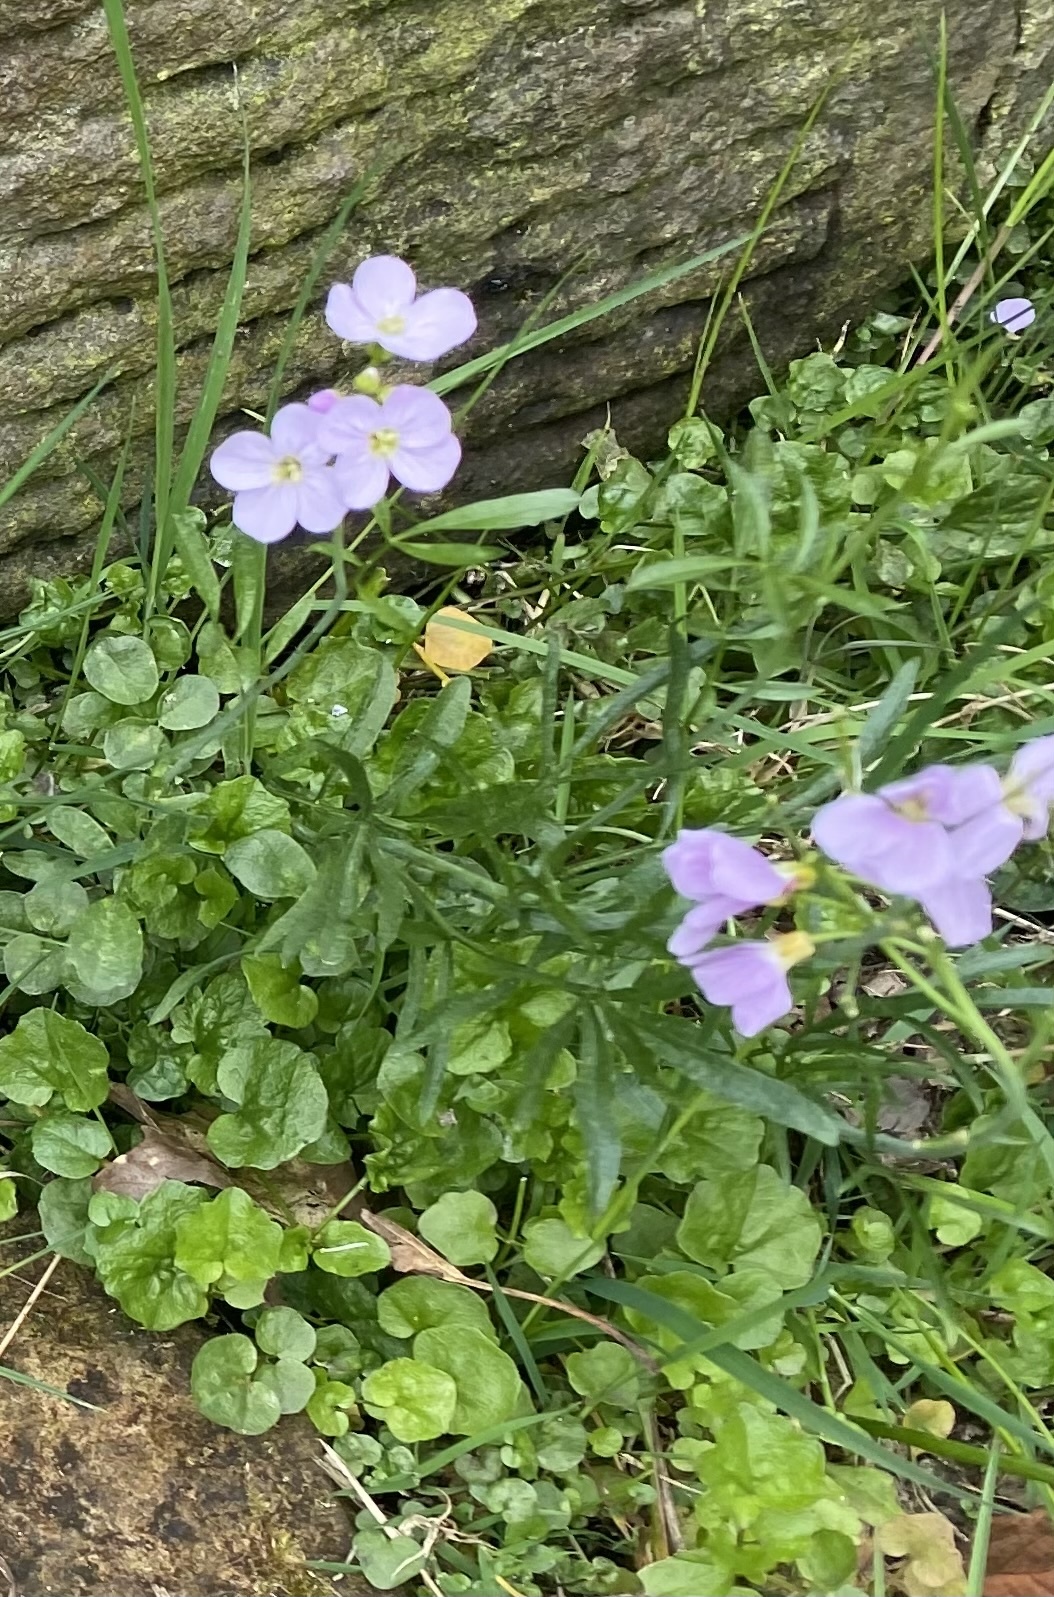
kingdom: Plantae
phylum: Tracheophyta
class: Magnoliopsida
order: Brassicales
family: Brassicaceae
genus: Cardamine
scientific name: Cardamine pratensis
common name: Cuckoo flower
